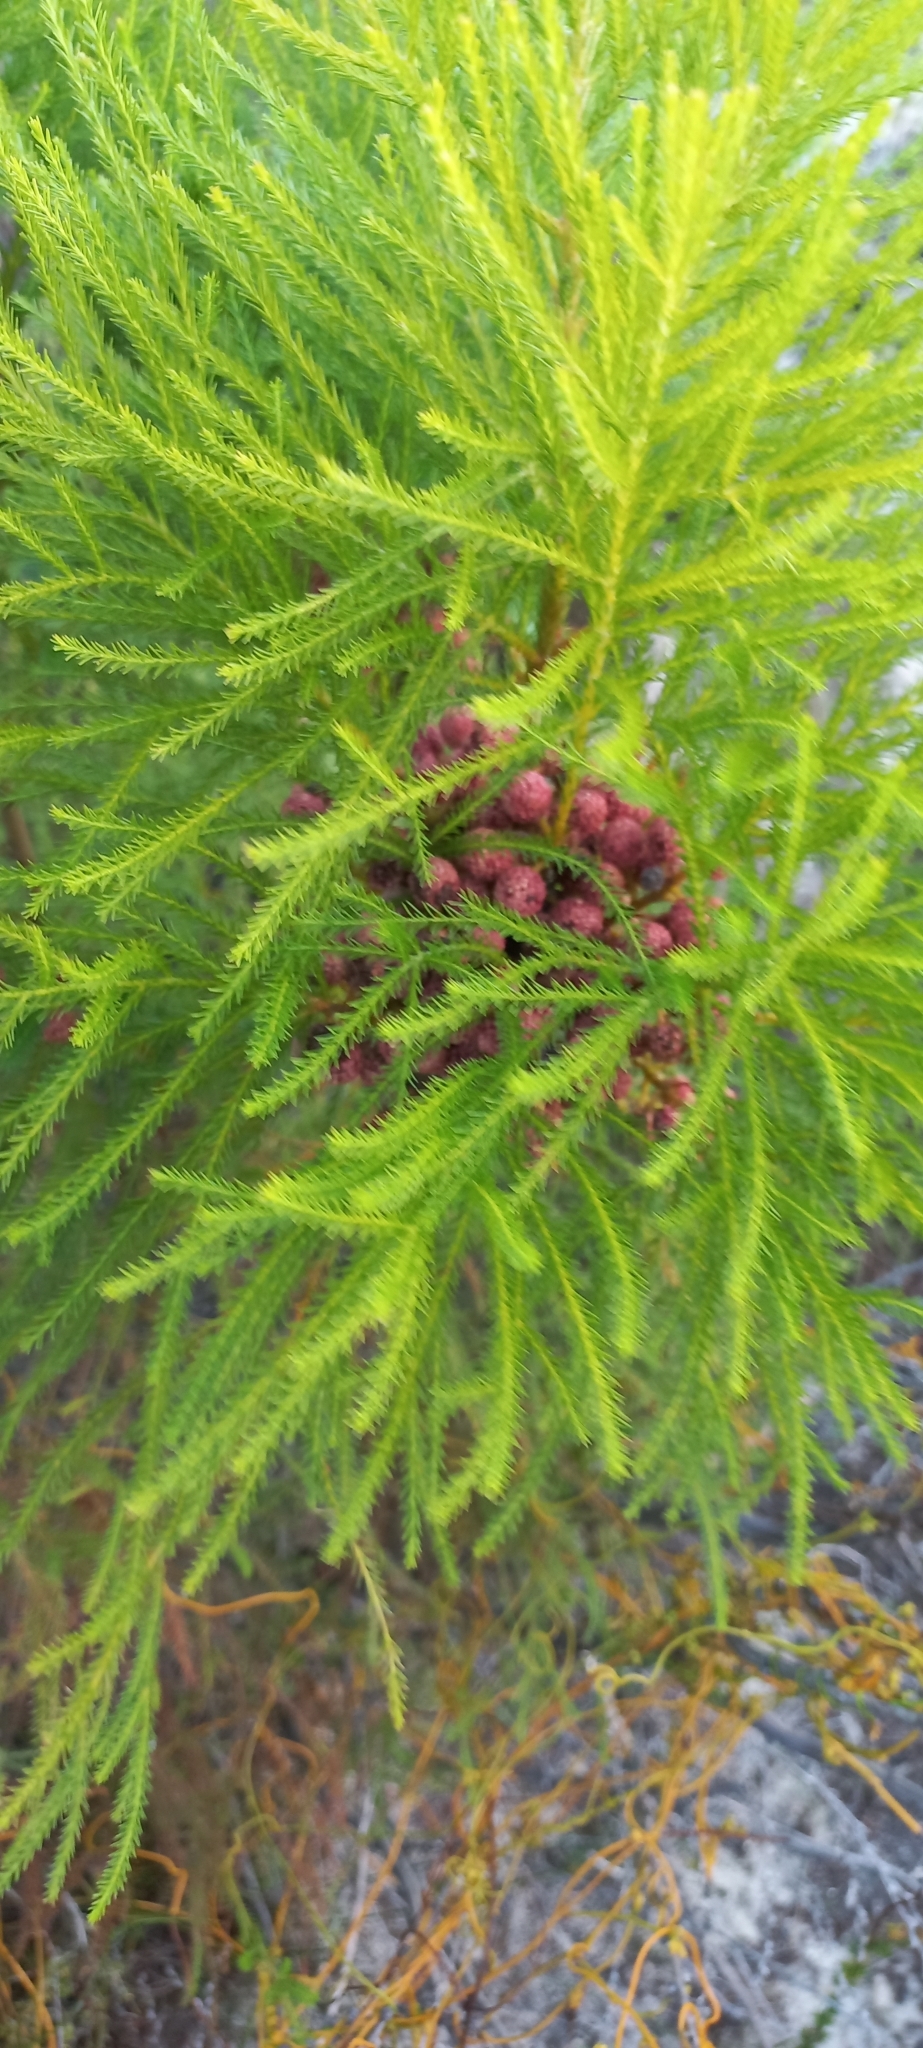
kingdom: Plantae
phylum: Tracheophyta
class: Magnoliopsida
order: Bruniales
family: Bruniaceae
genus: Berzelia
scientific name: Berzelia lanuginosa
